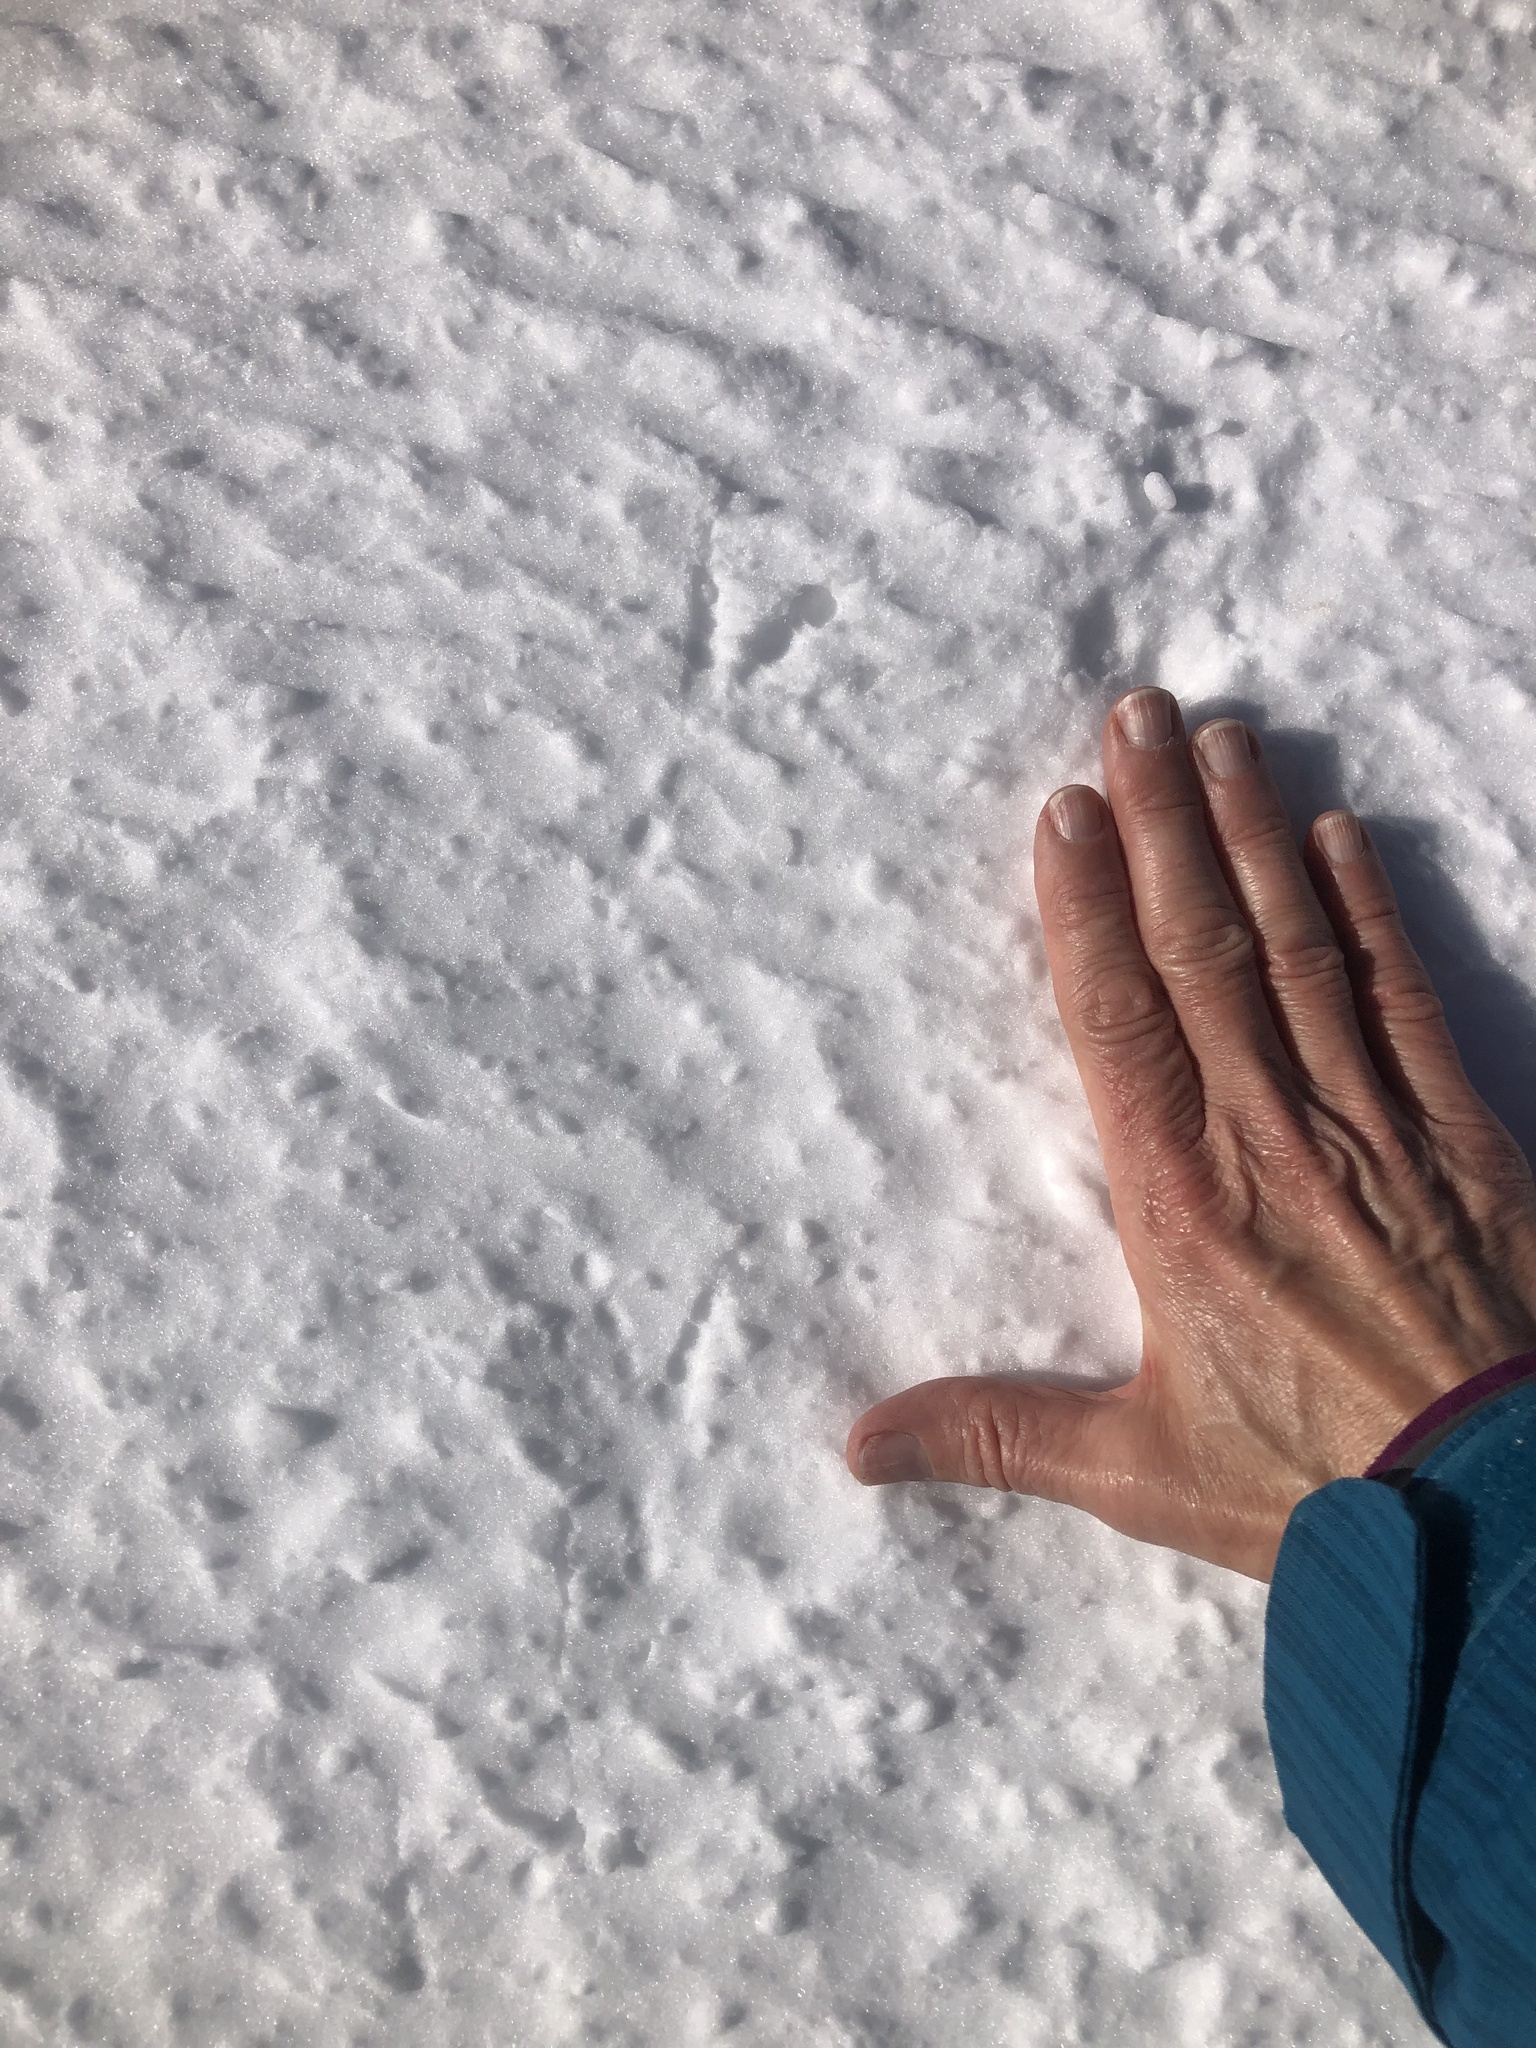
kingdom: Animalia
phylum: Chordata
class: Aves
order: Passeriformes
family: Corvidae
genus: Corvus
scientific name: Corvus corax
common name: Common raven
